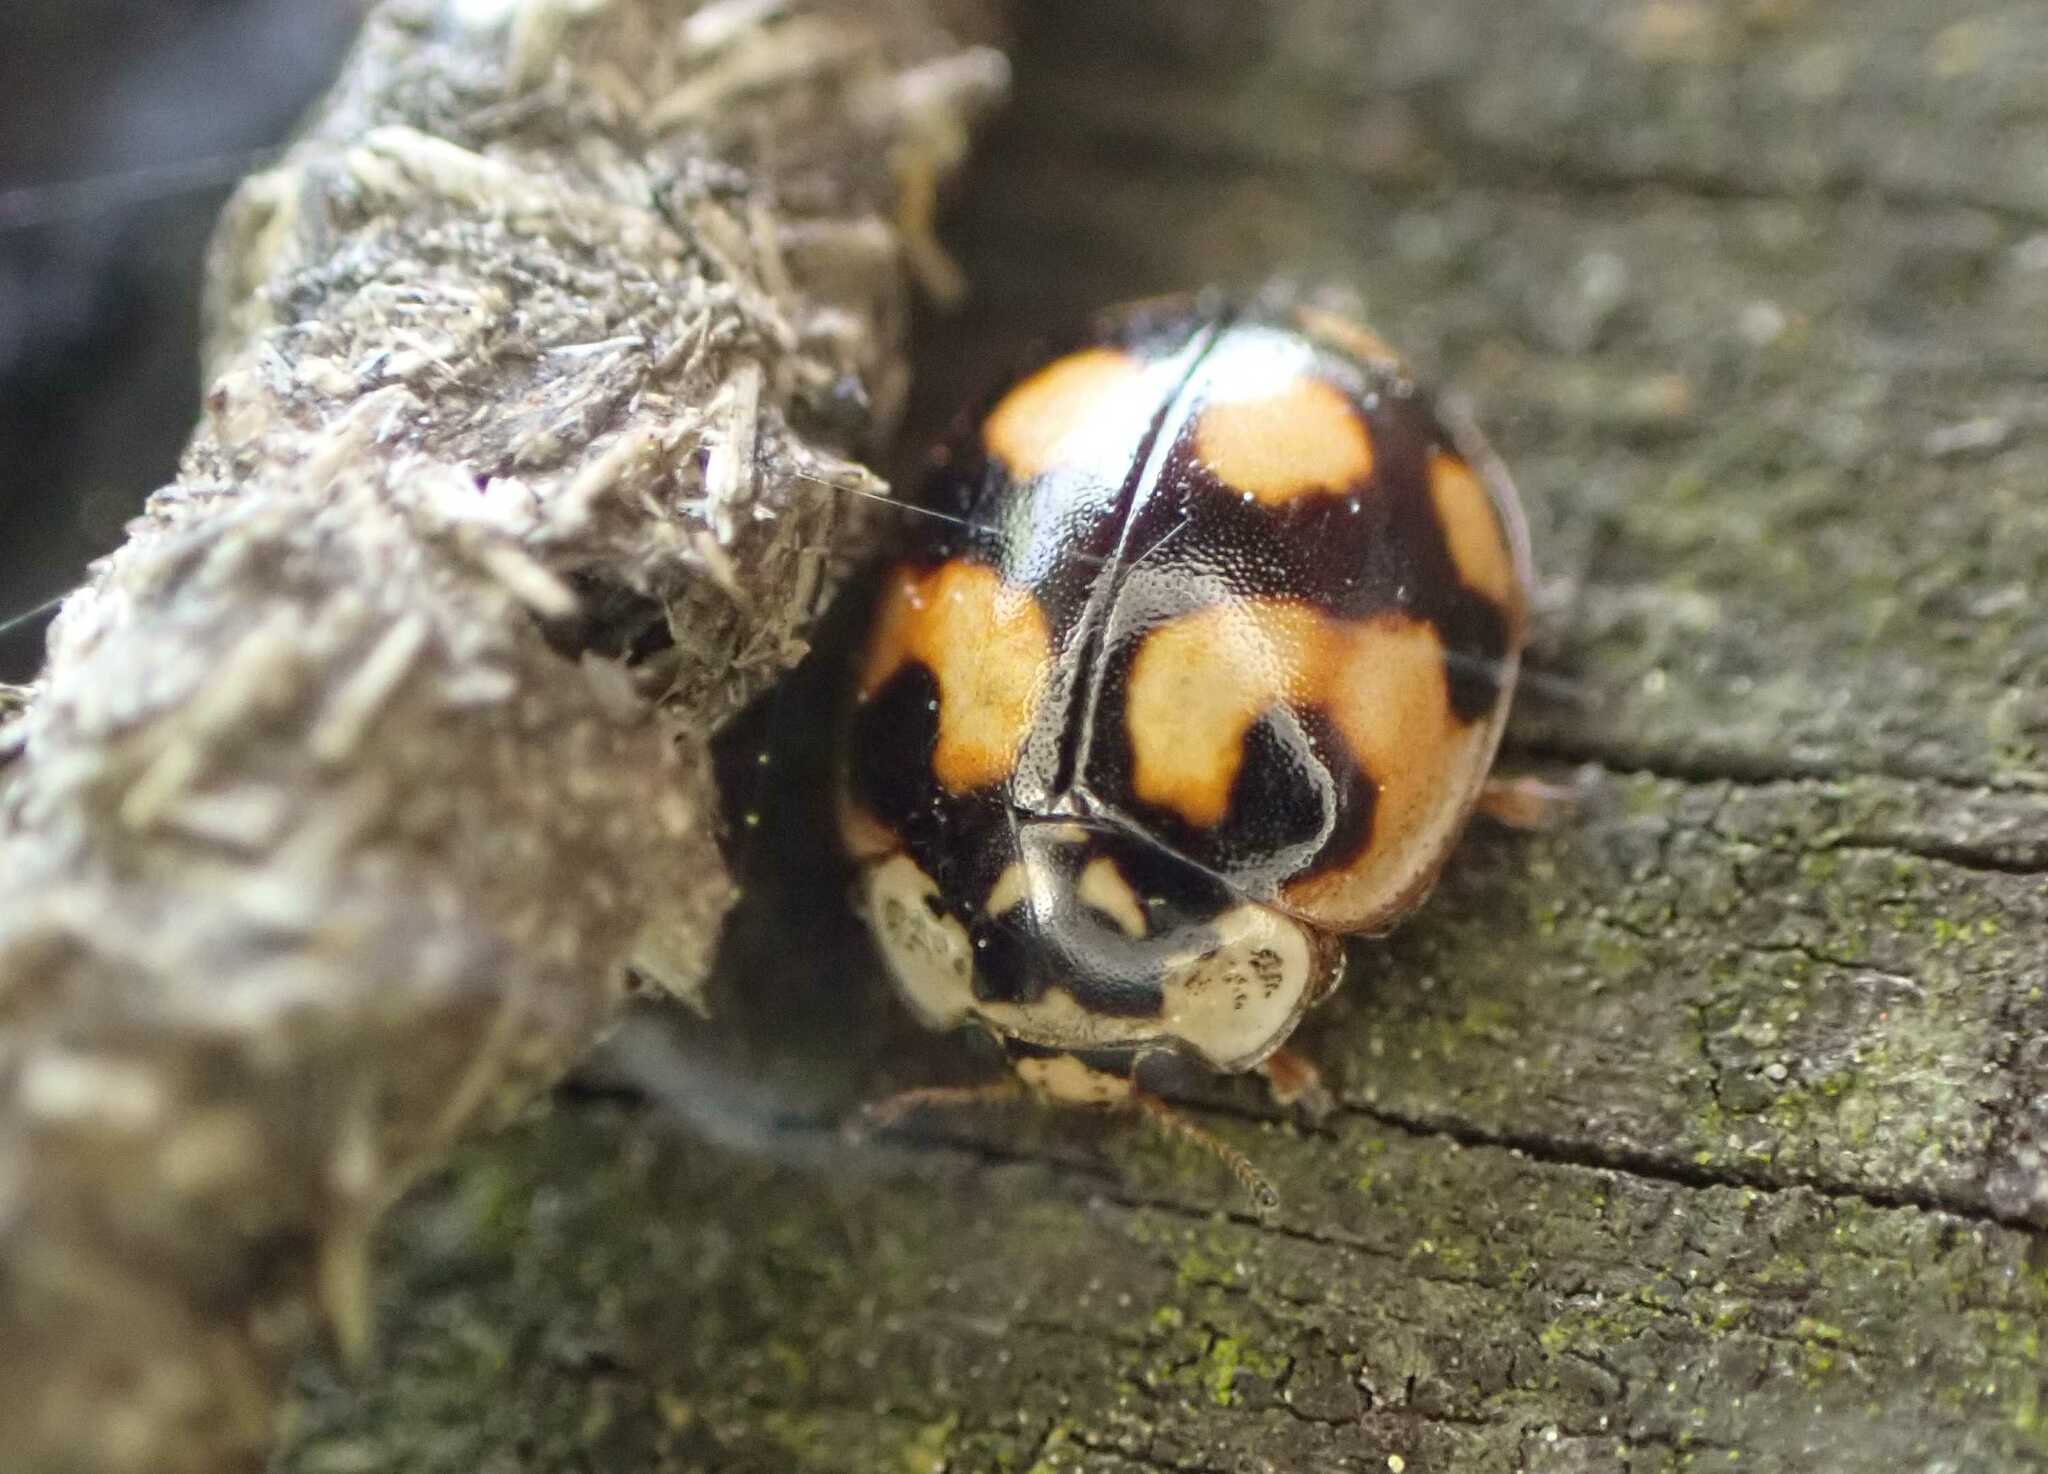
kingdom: Animalia
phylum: Arthropoda
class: Insecta
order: Coleoptera
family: Coccinellidae
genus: Adalia
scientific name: Adalia decempunctata
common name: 10-spot ladybird
